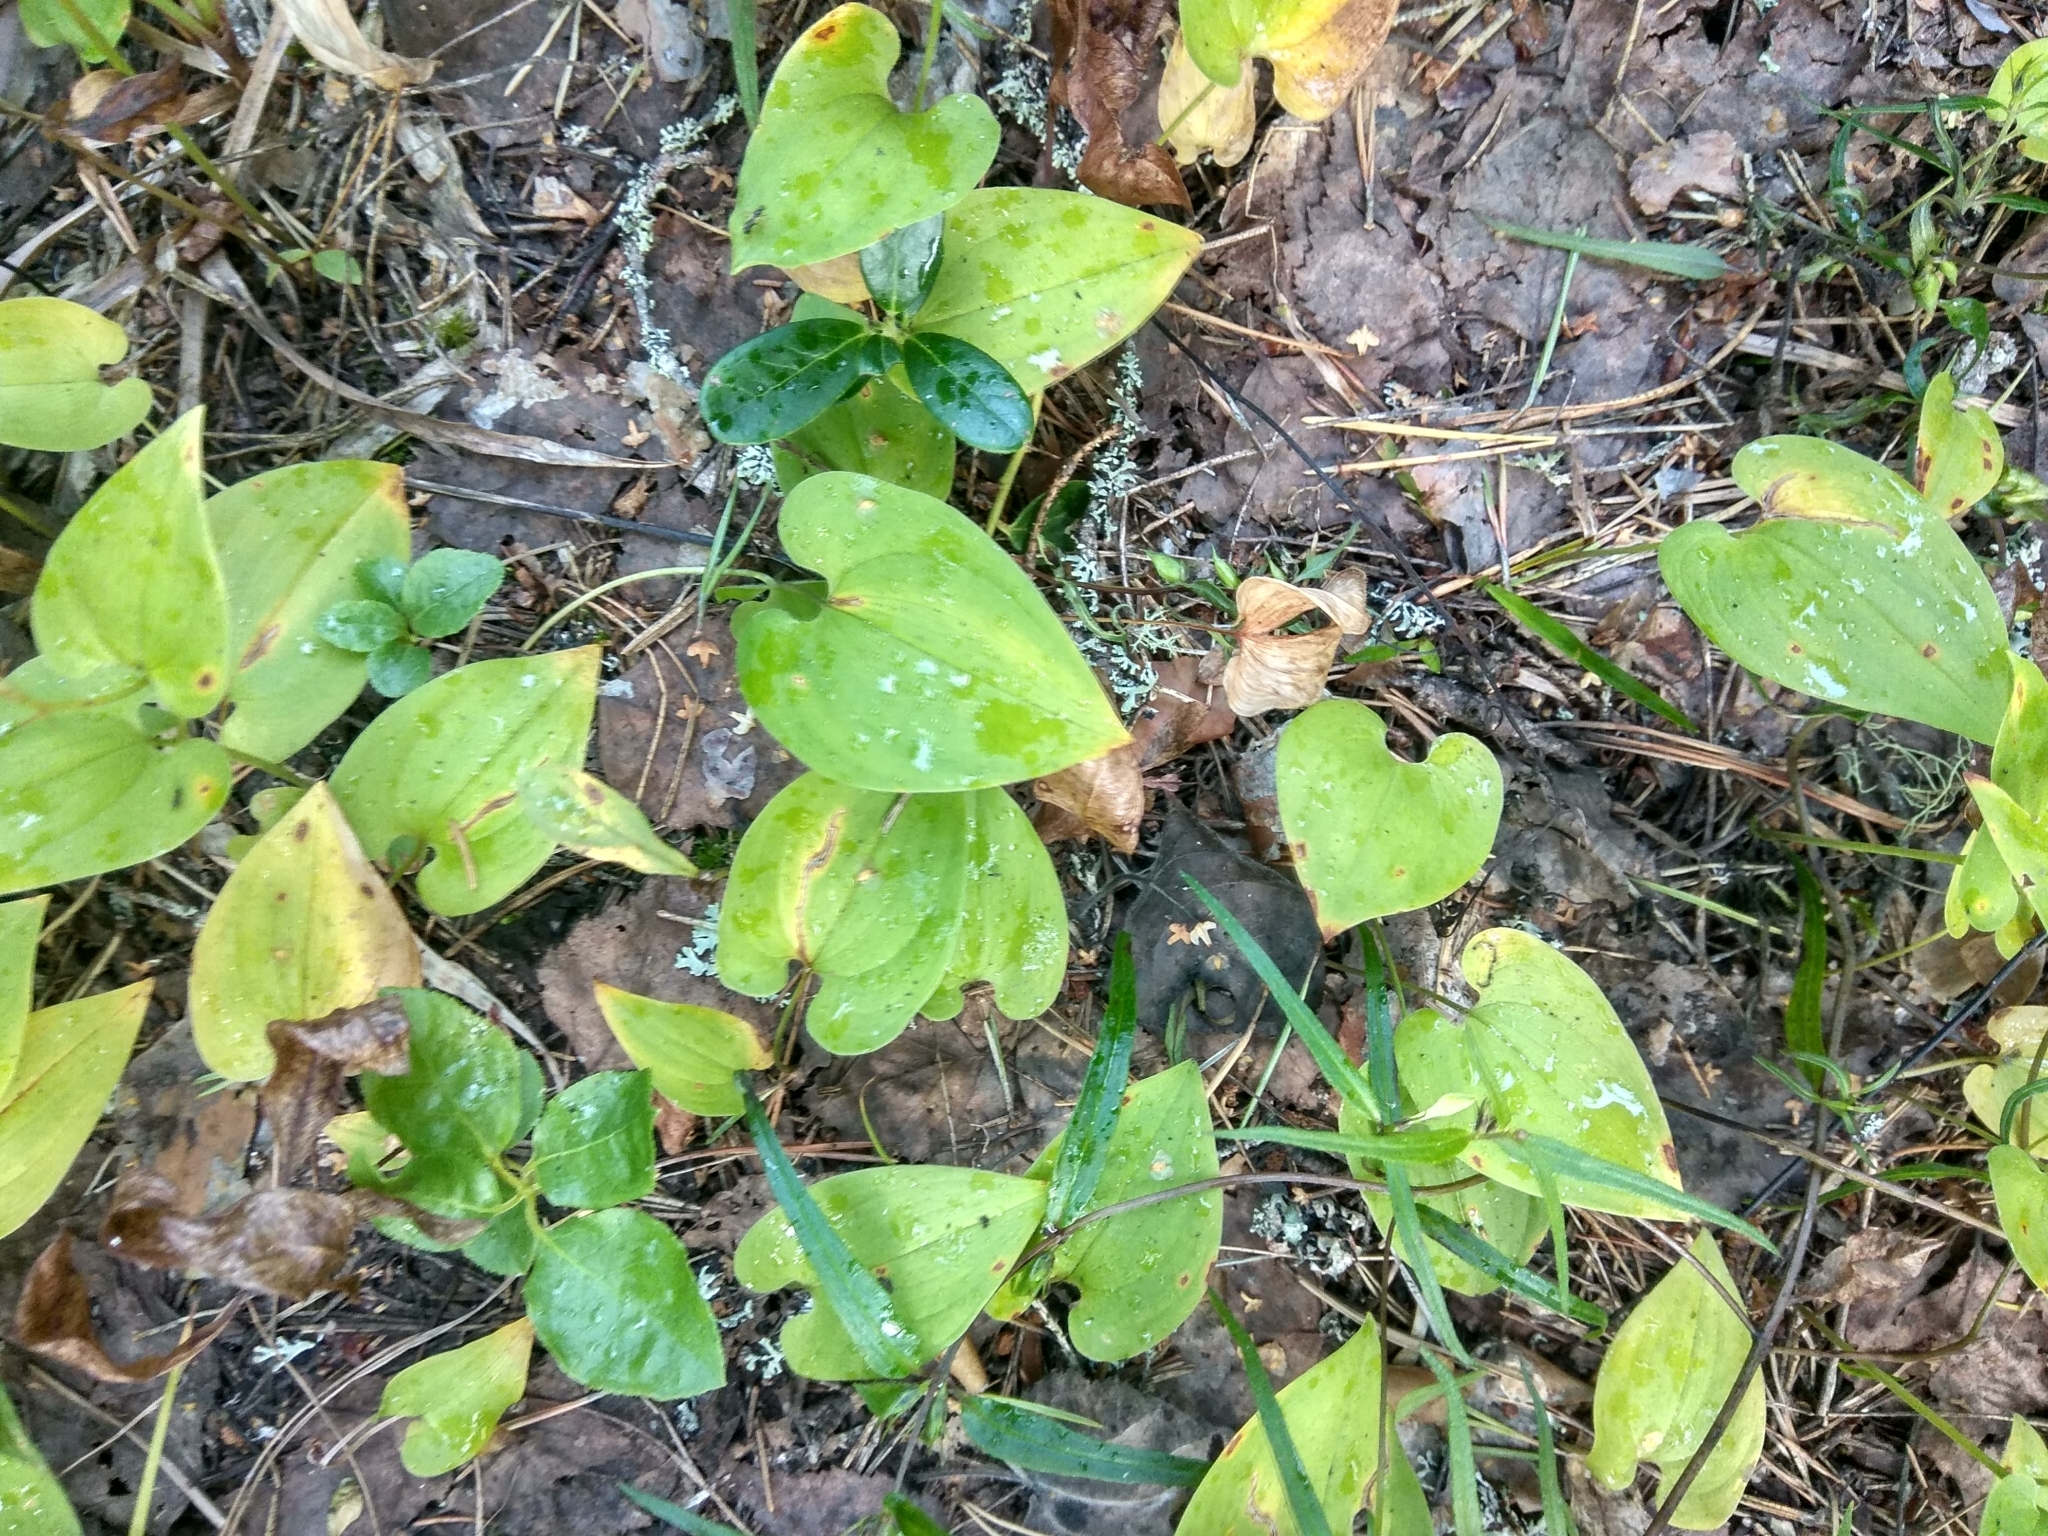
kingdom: Plantae
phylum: Tracheophyta
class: Liliopsida
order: Asparagales
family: Asparagaceae
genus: Maianthemum
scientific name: Maianthemum bifolium
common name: May lily
